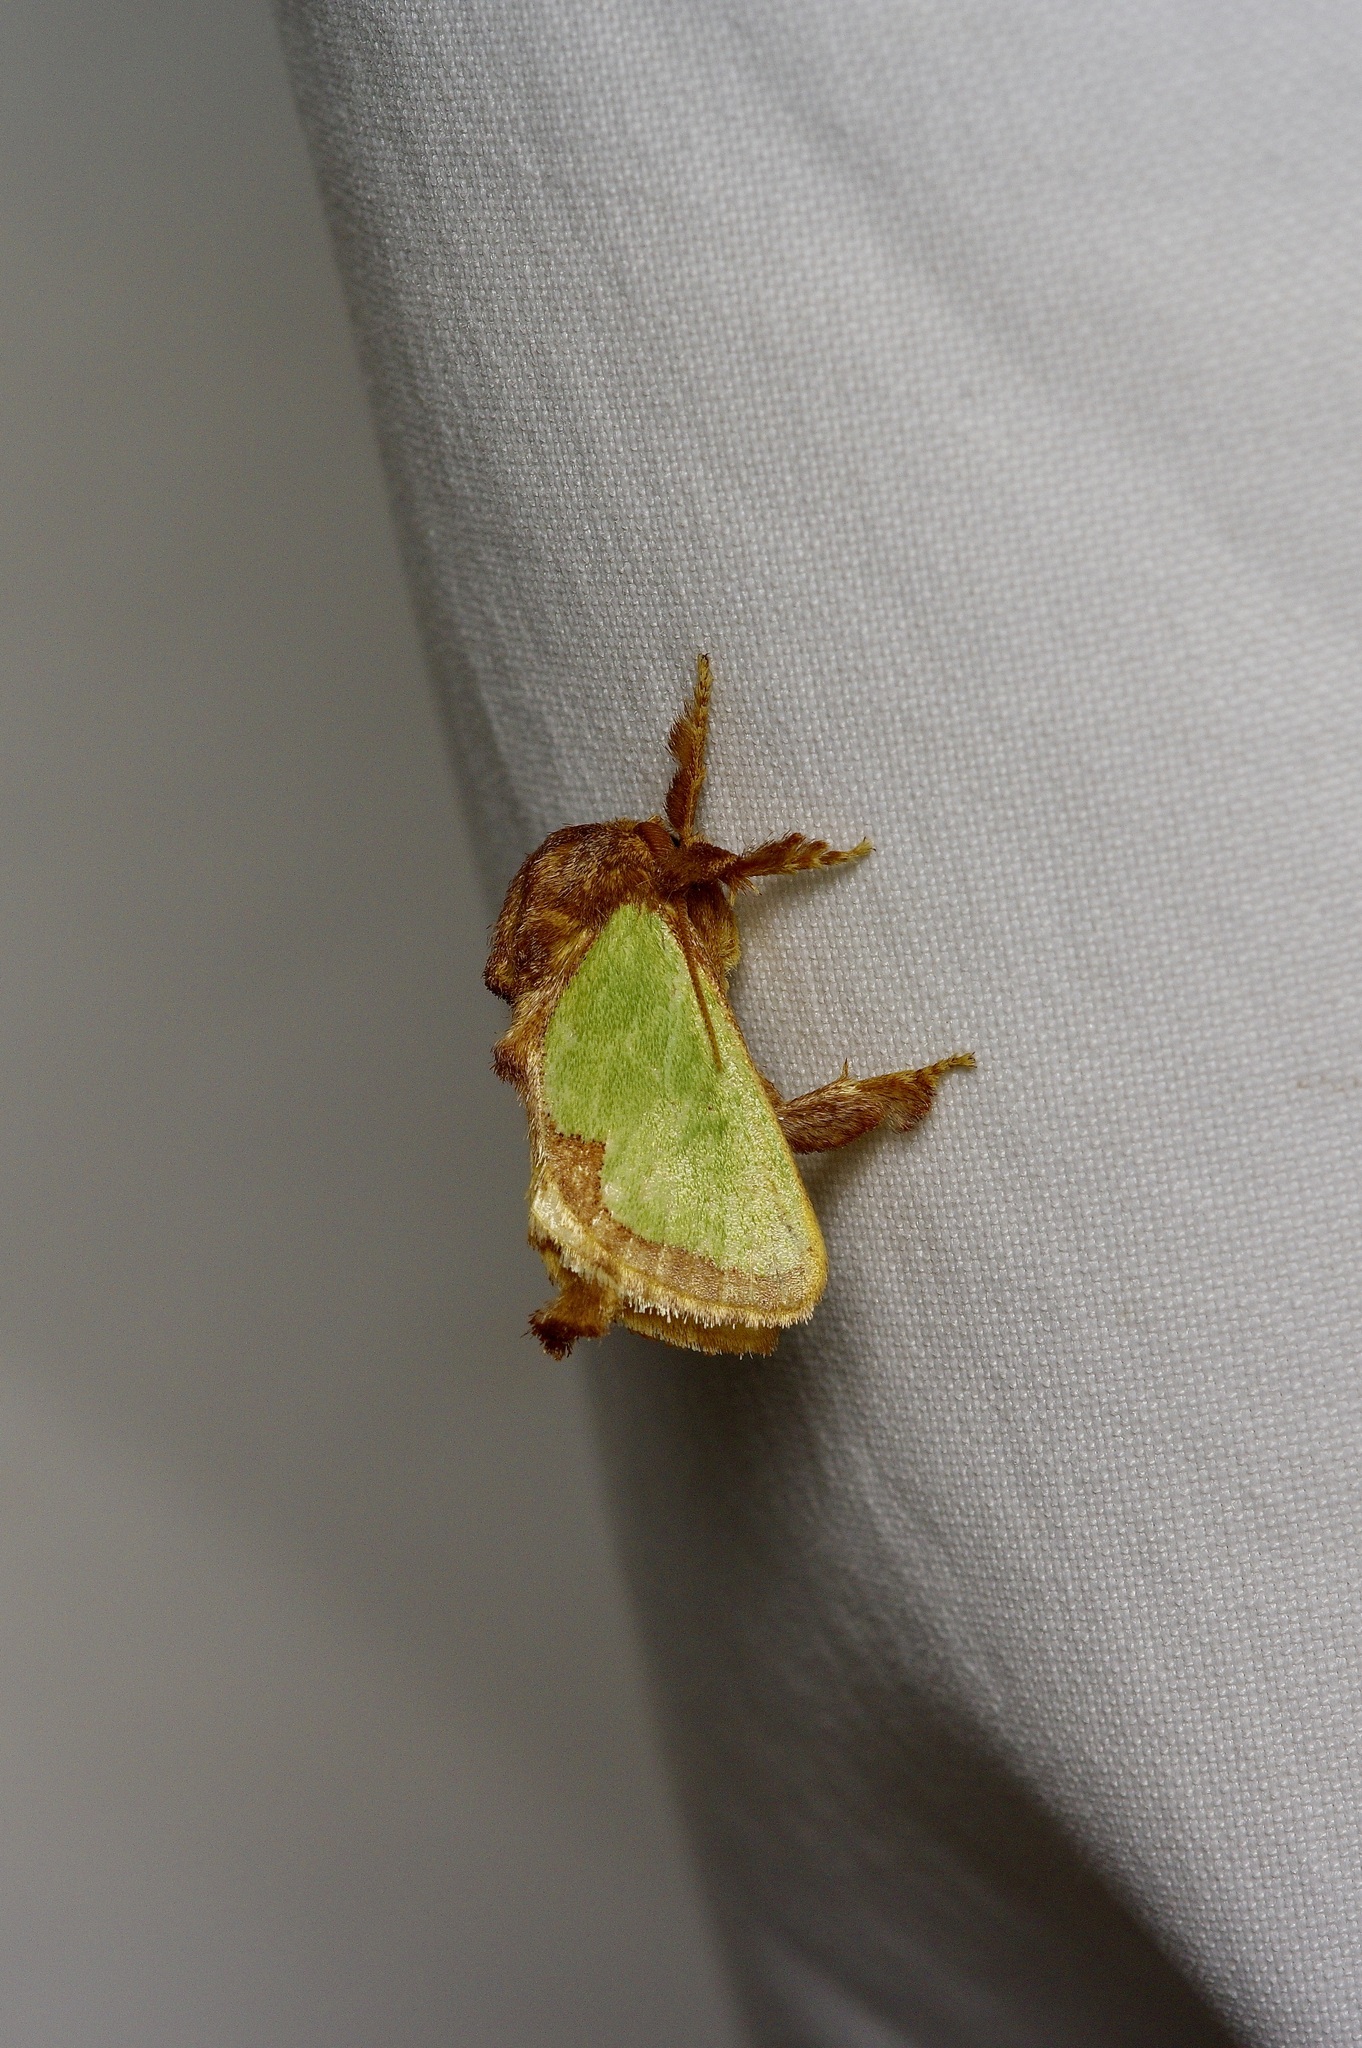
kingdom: Animalia
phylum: Arthropoda
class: Insecta
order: Lepidoptera
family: Limacodidae
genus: Euclea
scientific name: Euclea incisa
